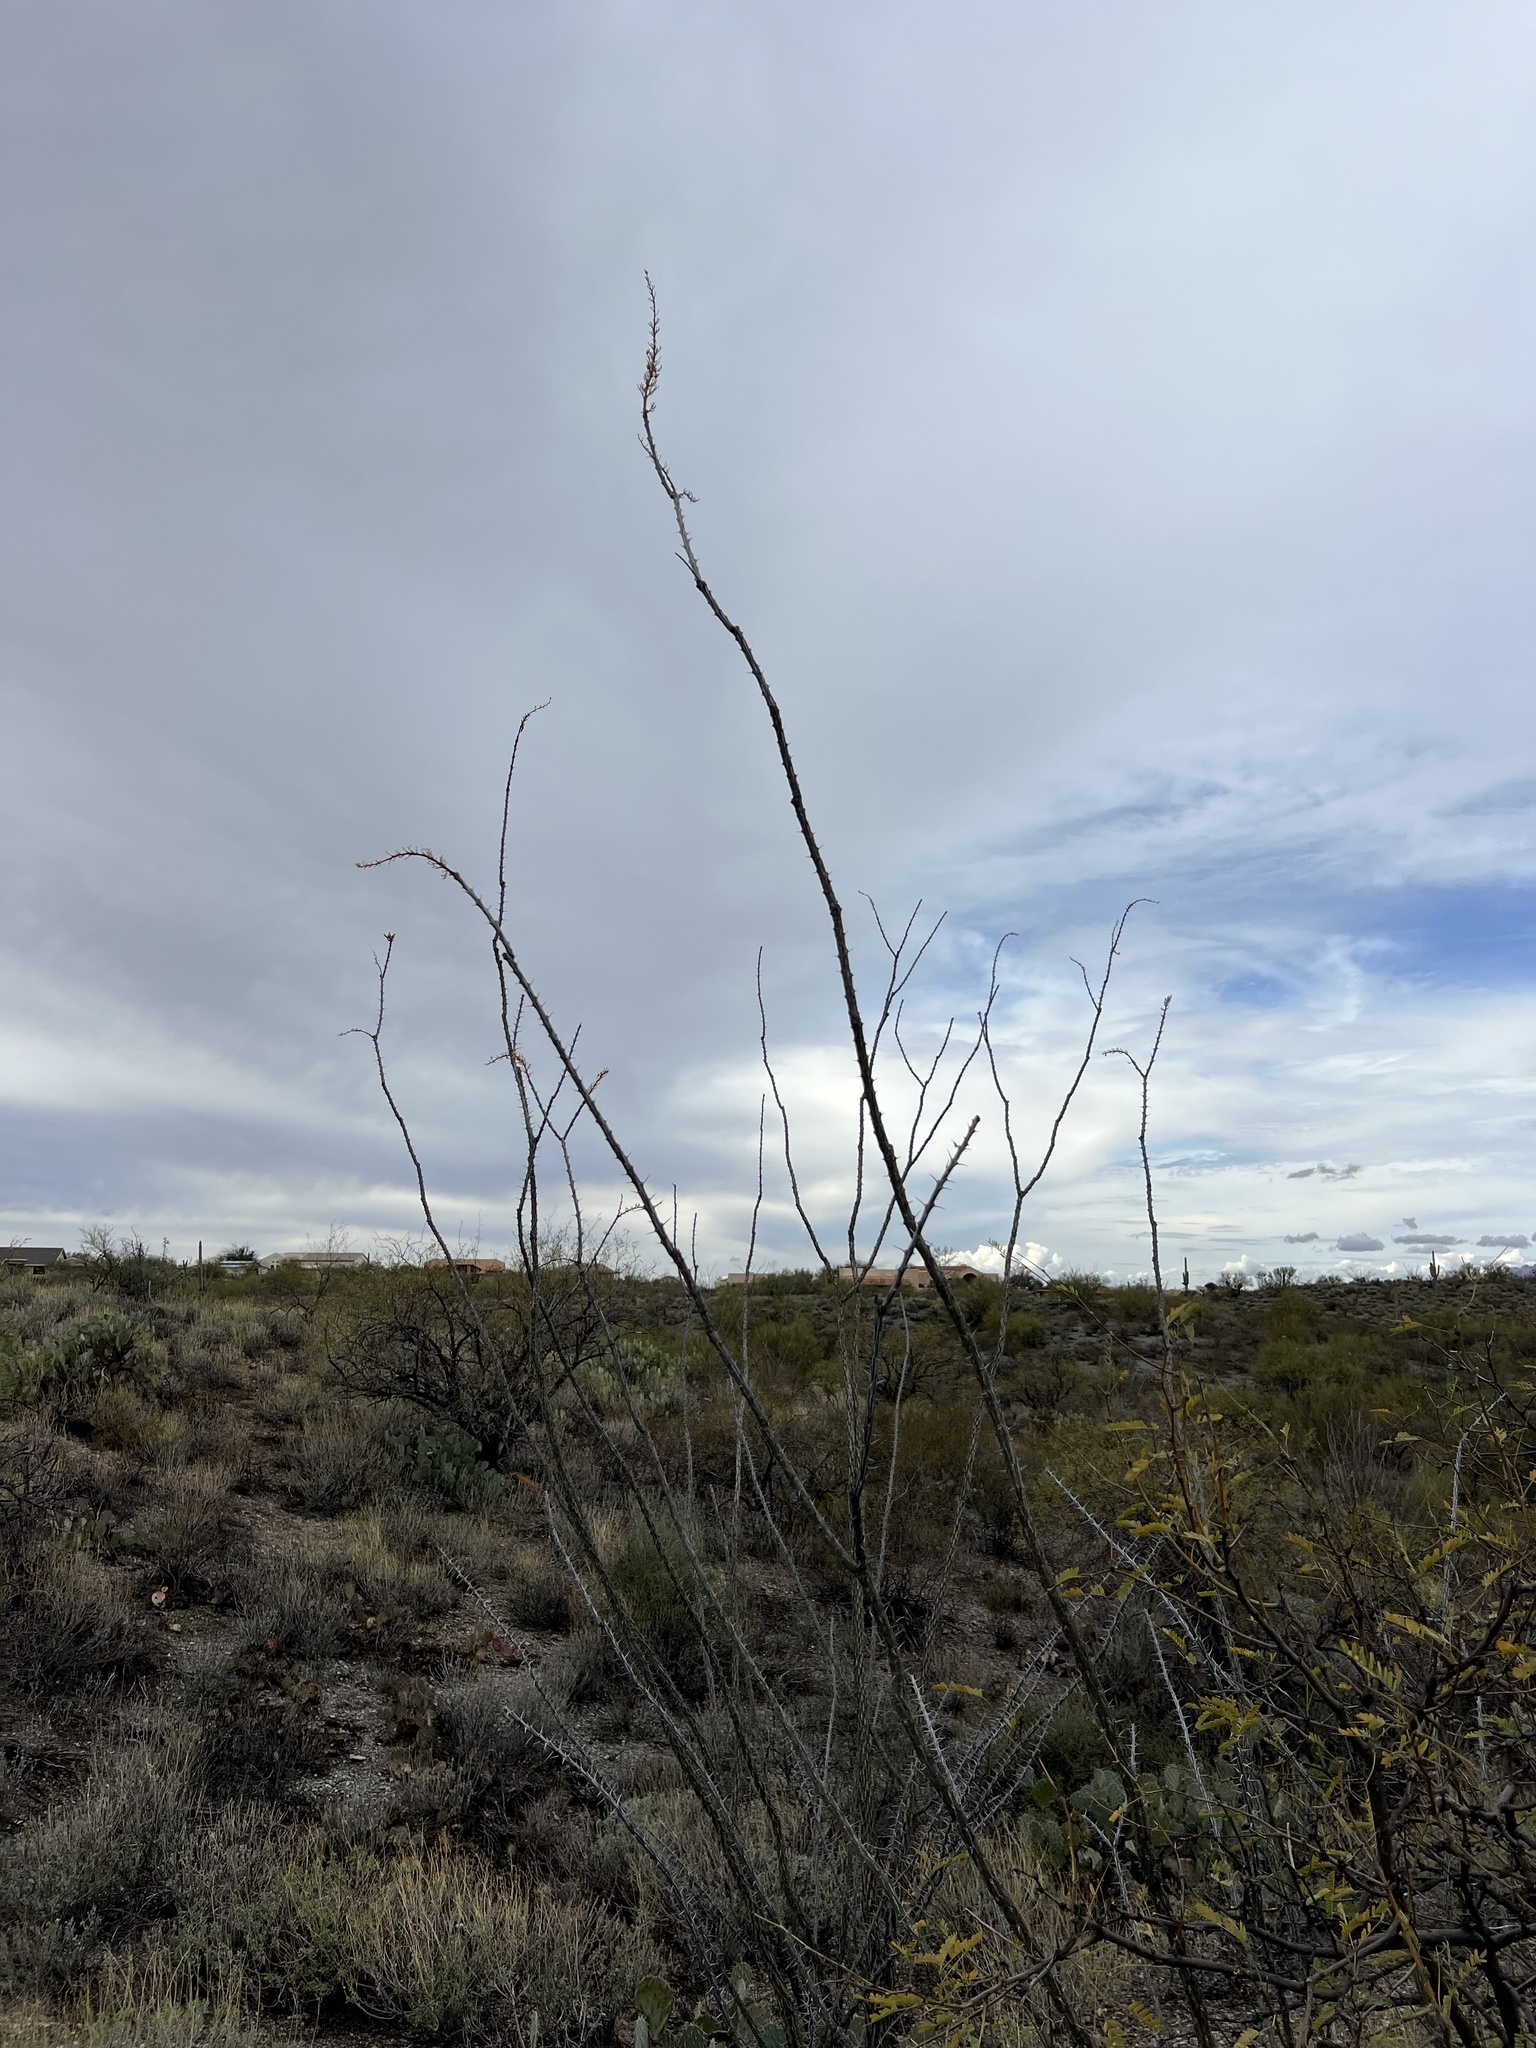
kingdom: Plantae
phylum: Tracheophyta
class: Magnoliopsida
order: Ericales
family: Fouquieriaceae
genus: Fouquieria
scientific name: Fouquieria splendens
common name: Vine-cactus
